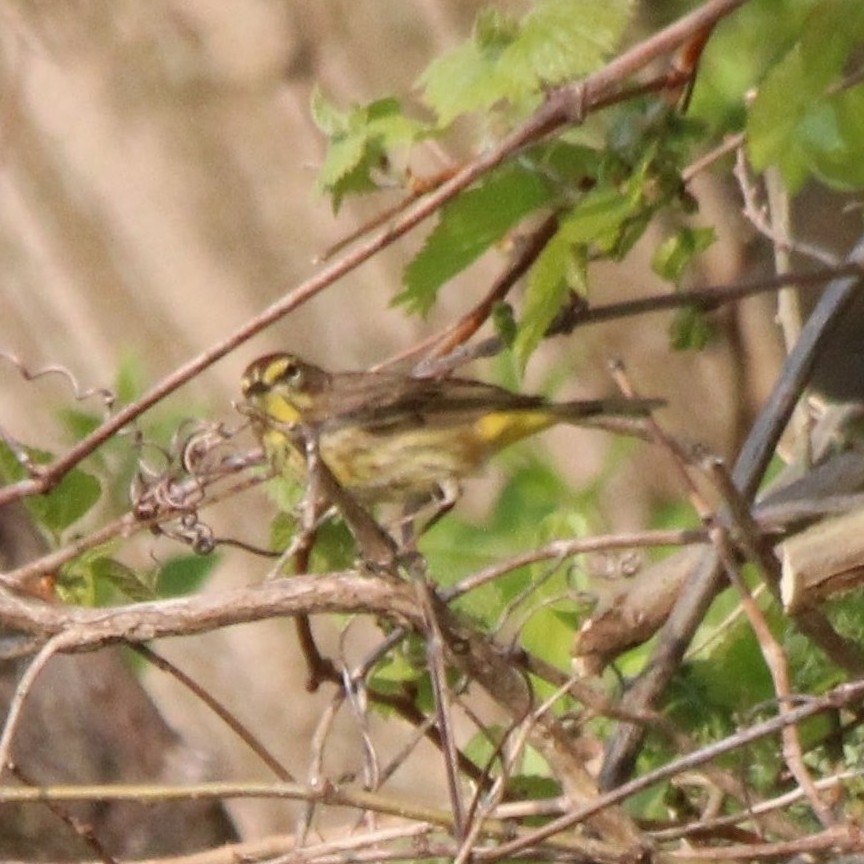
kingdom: Animalia
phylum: Chordata
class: Aves
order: Passeriformes
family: Parulidae
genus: Setophaga
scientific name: Setophaga palmarum
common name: Palm warbler
